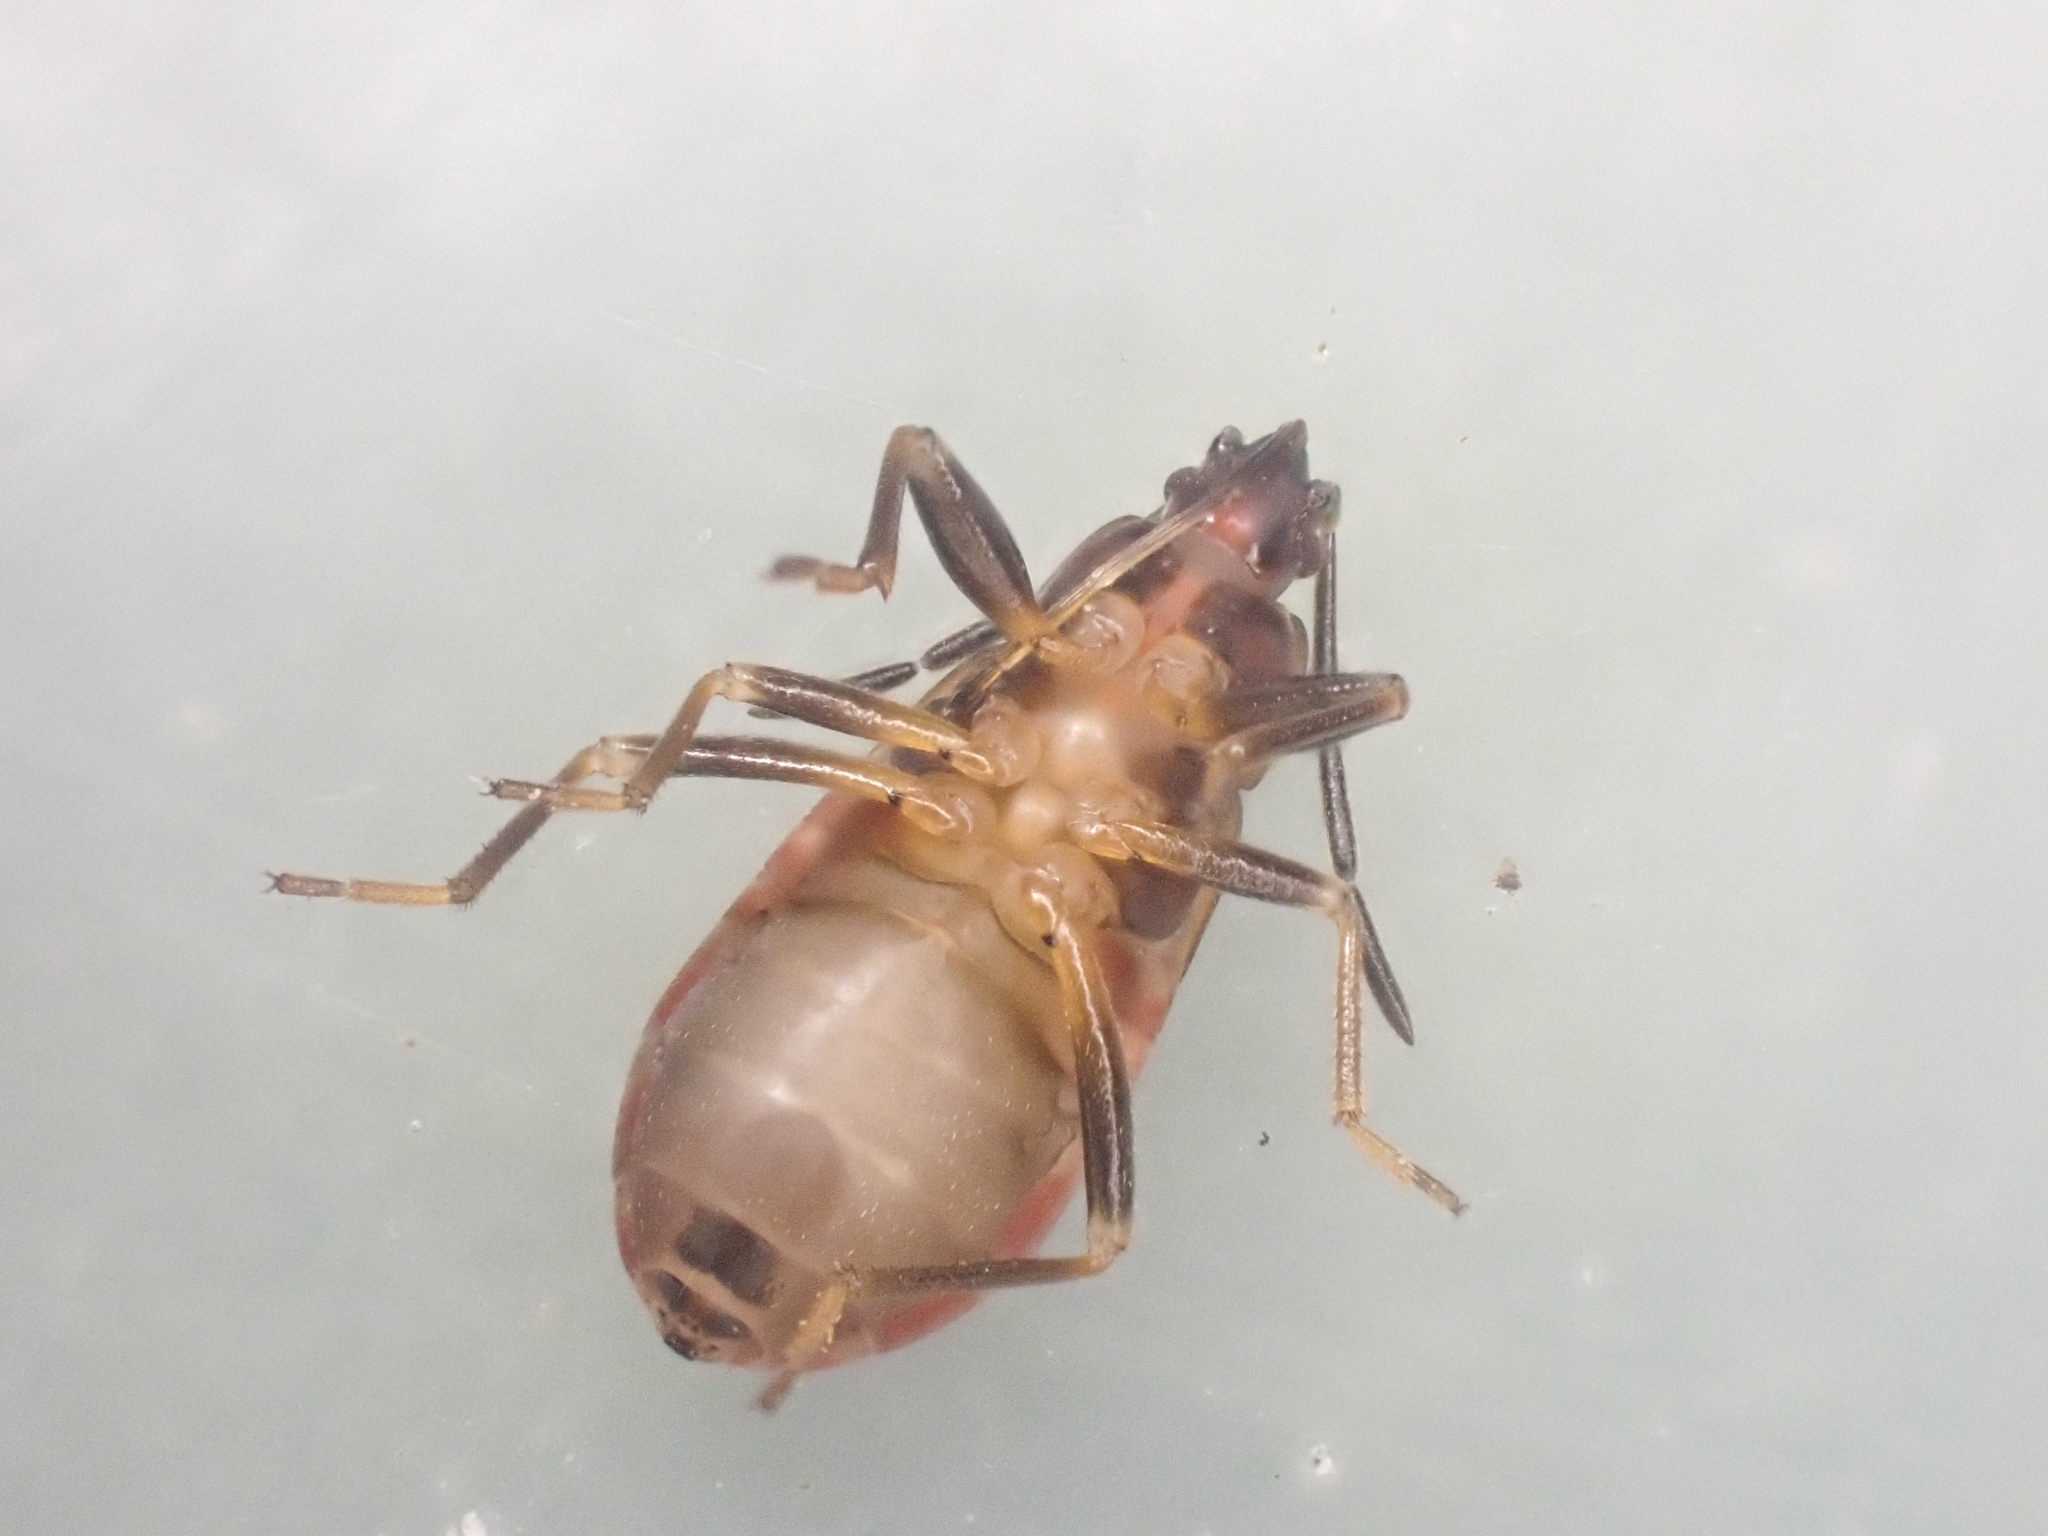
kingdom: Animalia
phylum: Arthropoda
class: Insecta
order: Hemiptera
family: Rhyparochromidae
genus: Eremocoris
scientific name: Eremocoris borealis
